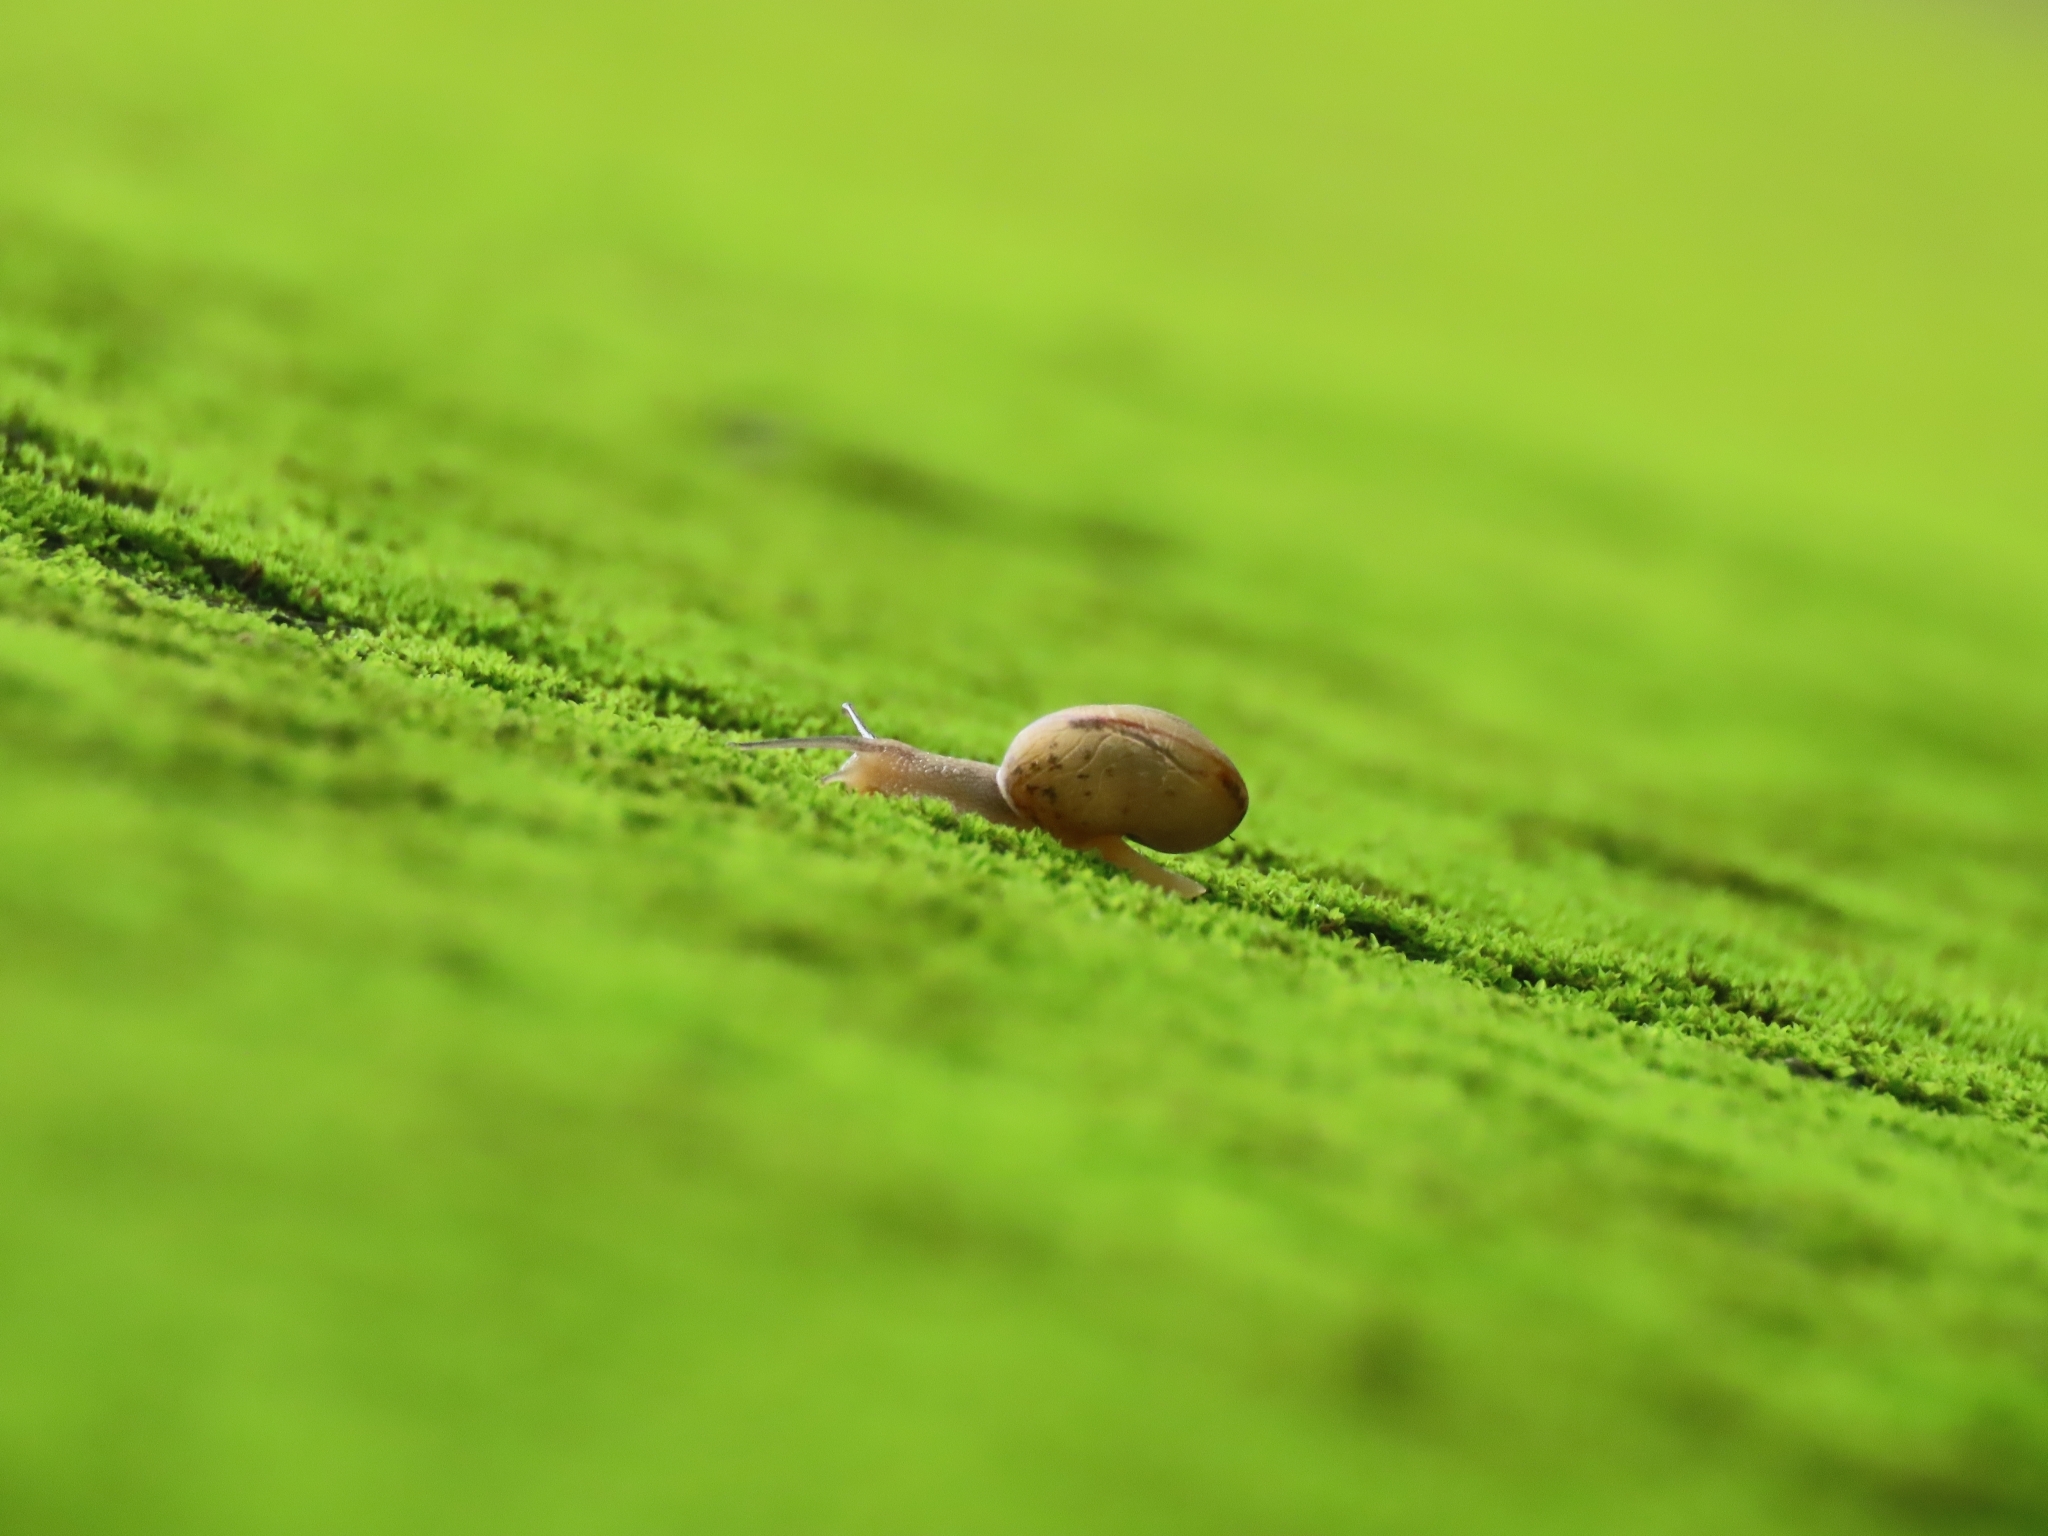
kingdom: Animalia
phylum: Mollusca
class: Gastropoda
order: Stylommatophora
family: Camaenidae
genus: Bradybaena
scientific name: Bradybaena similaris
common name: Asian trampsnail
